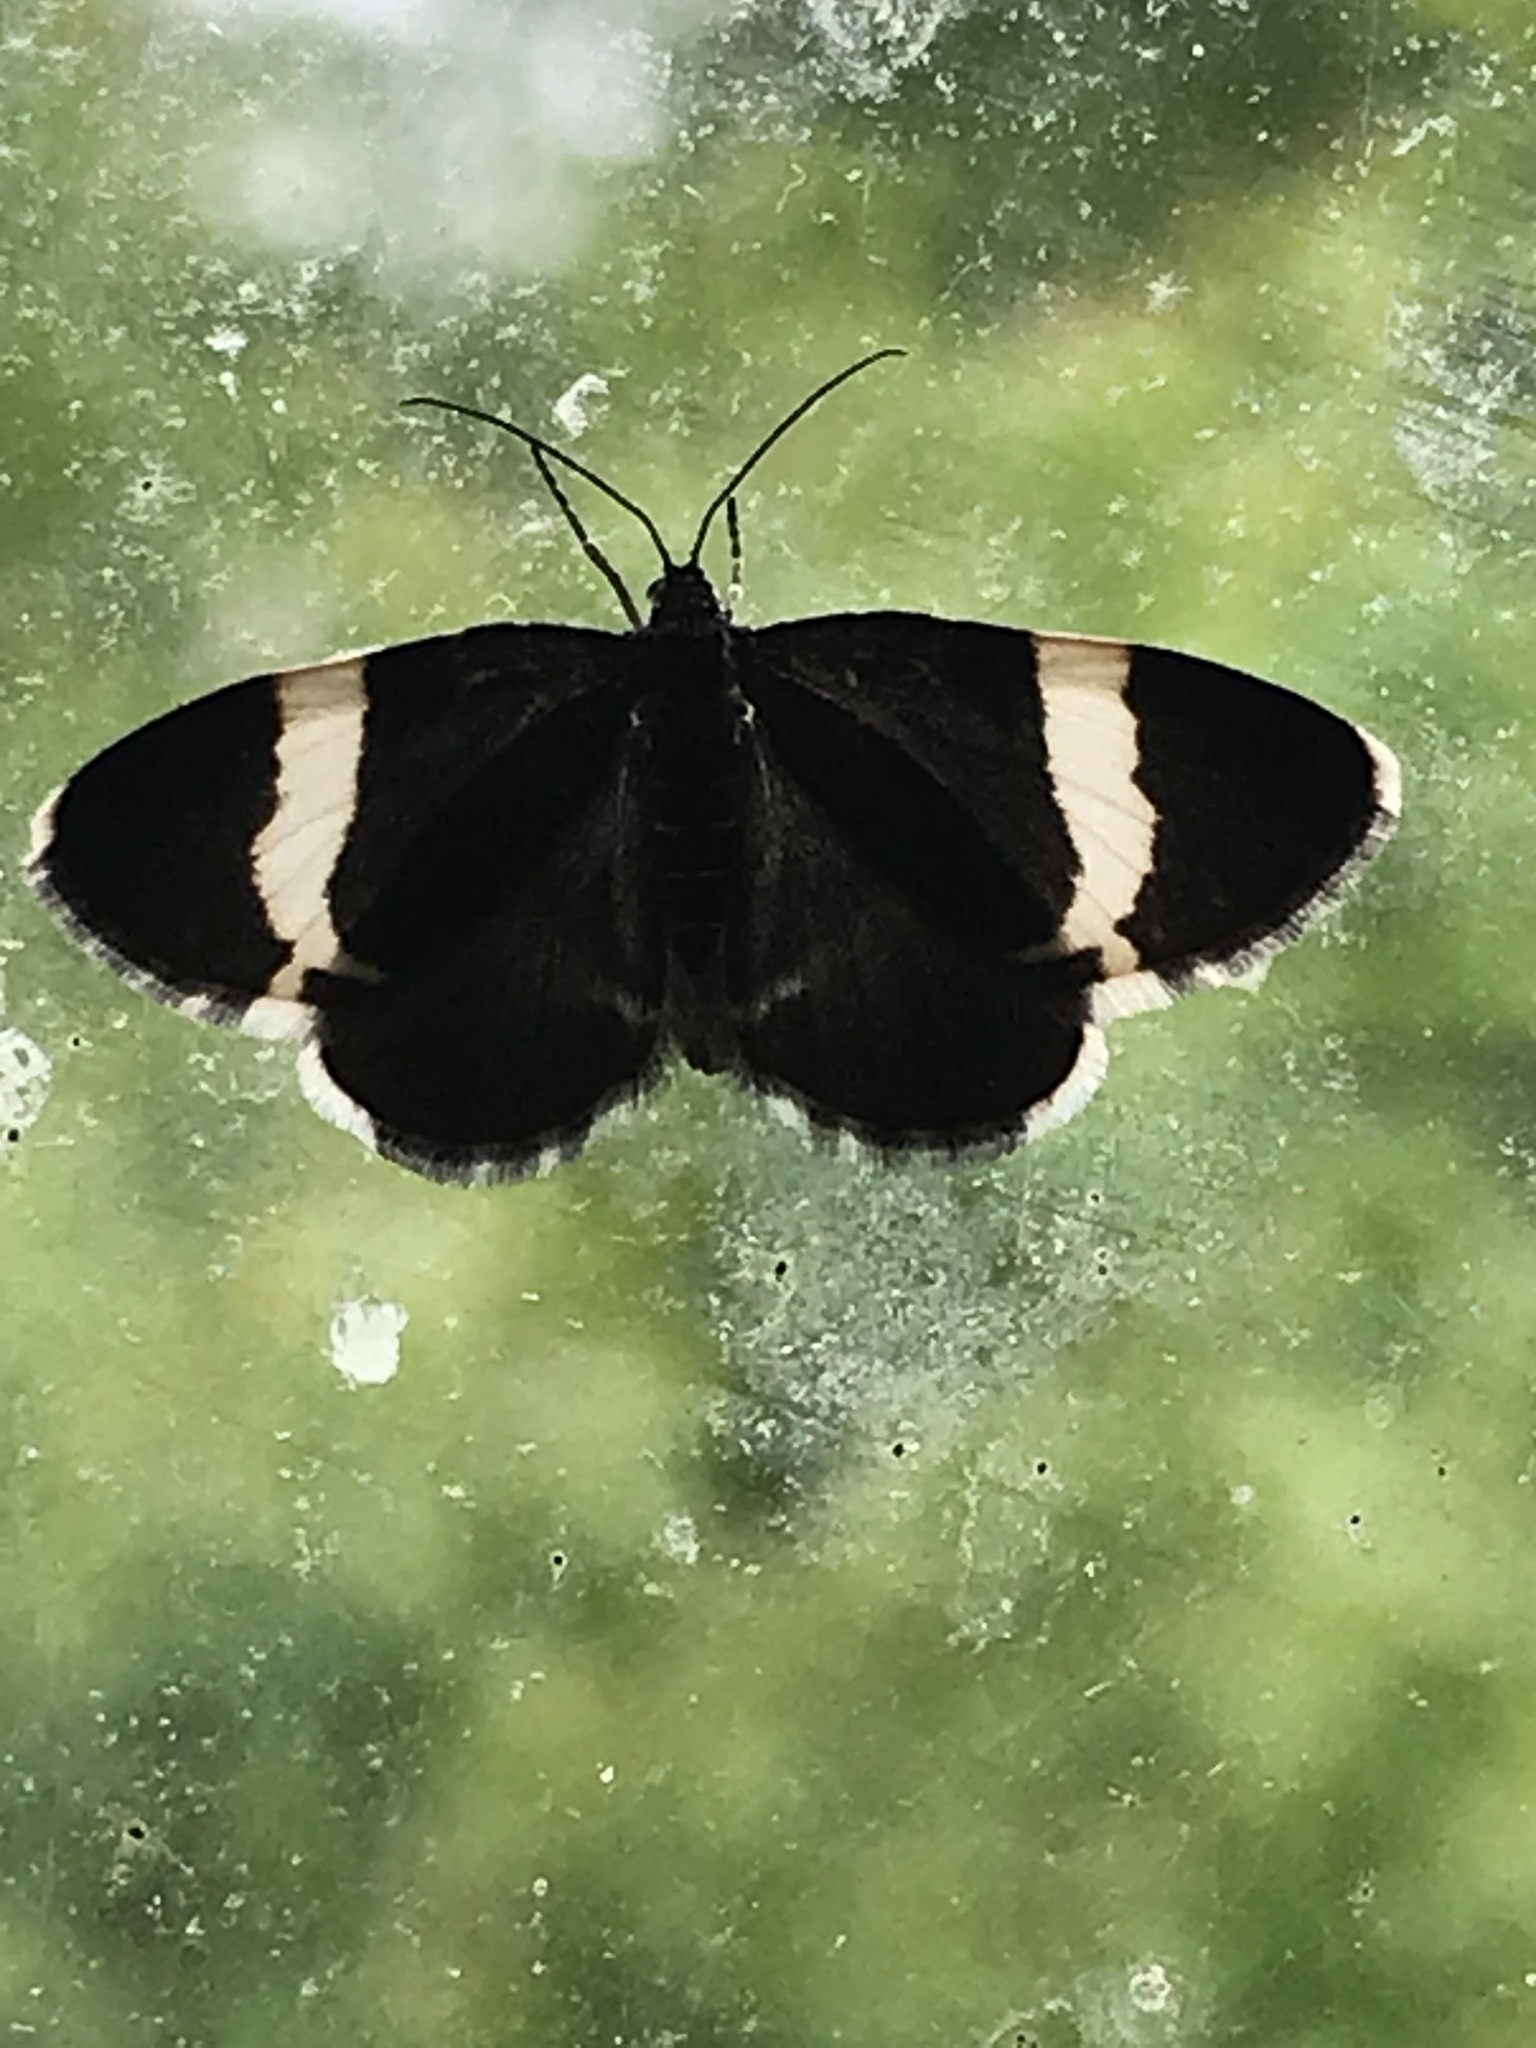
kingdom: Animalia
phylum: Arthropoda
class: Insecta
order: Lepidoptera
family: Geometridae
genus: Trichodezia
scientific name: Trichodezia albovittata
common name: White striped black
